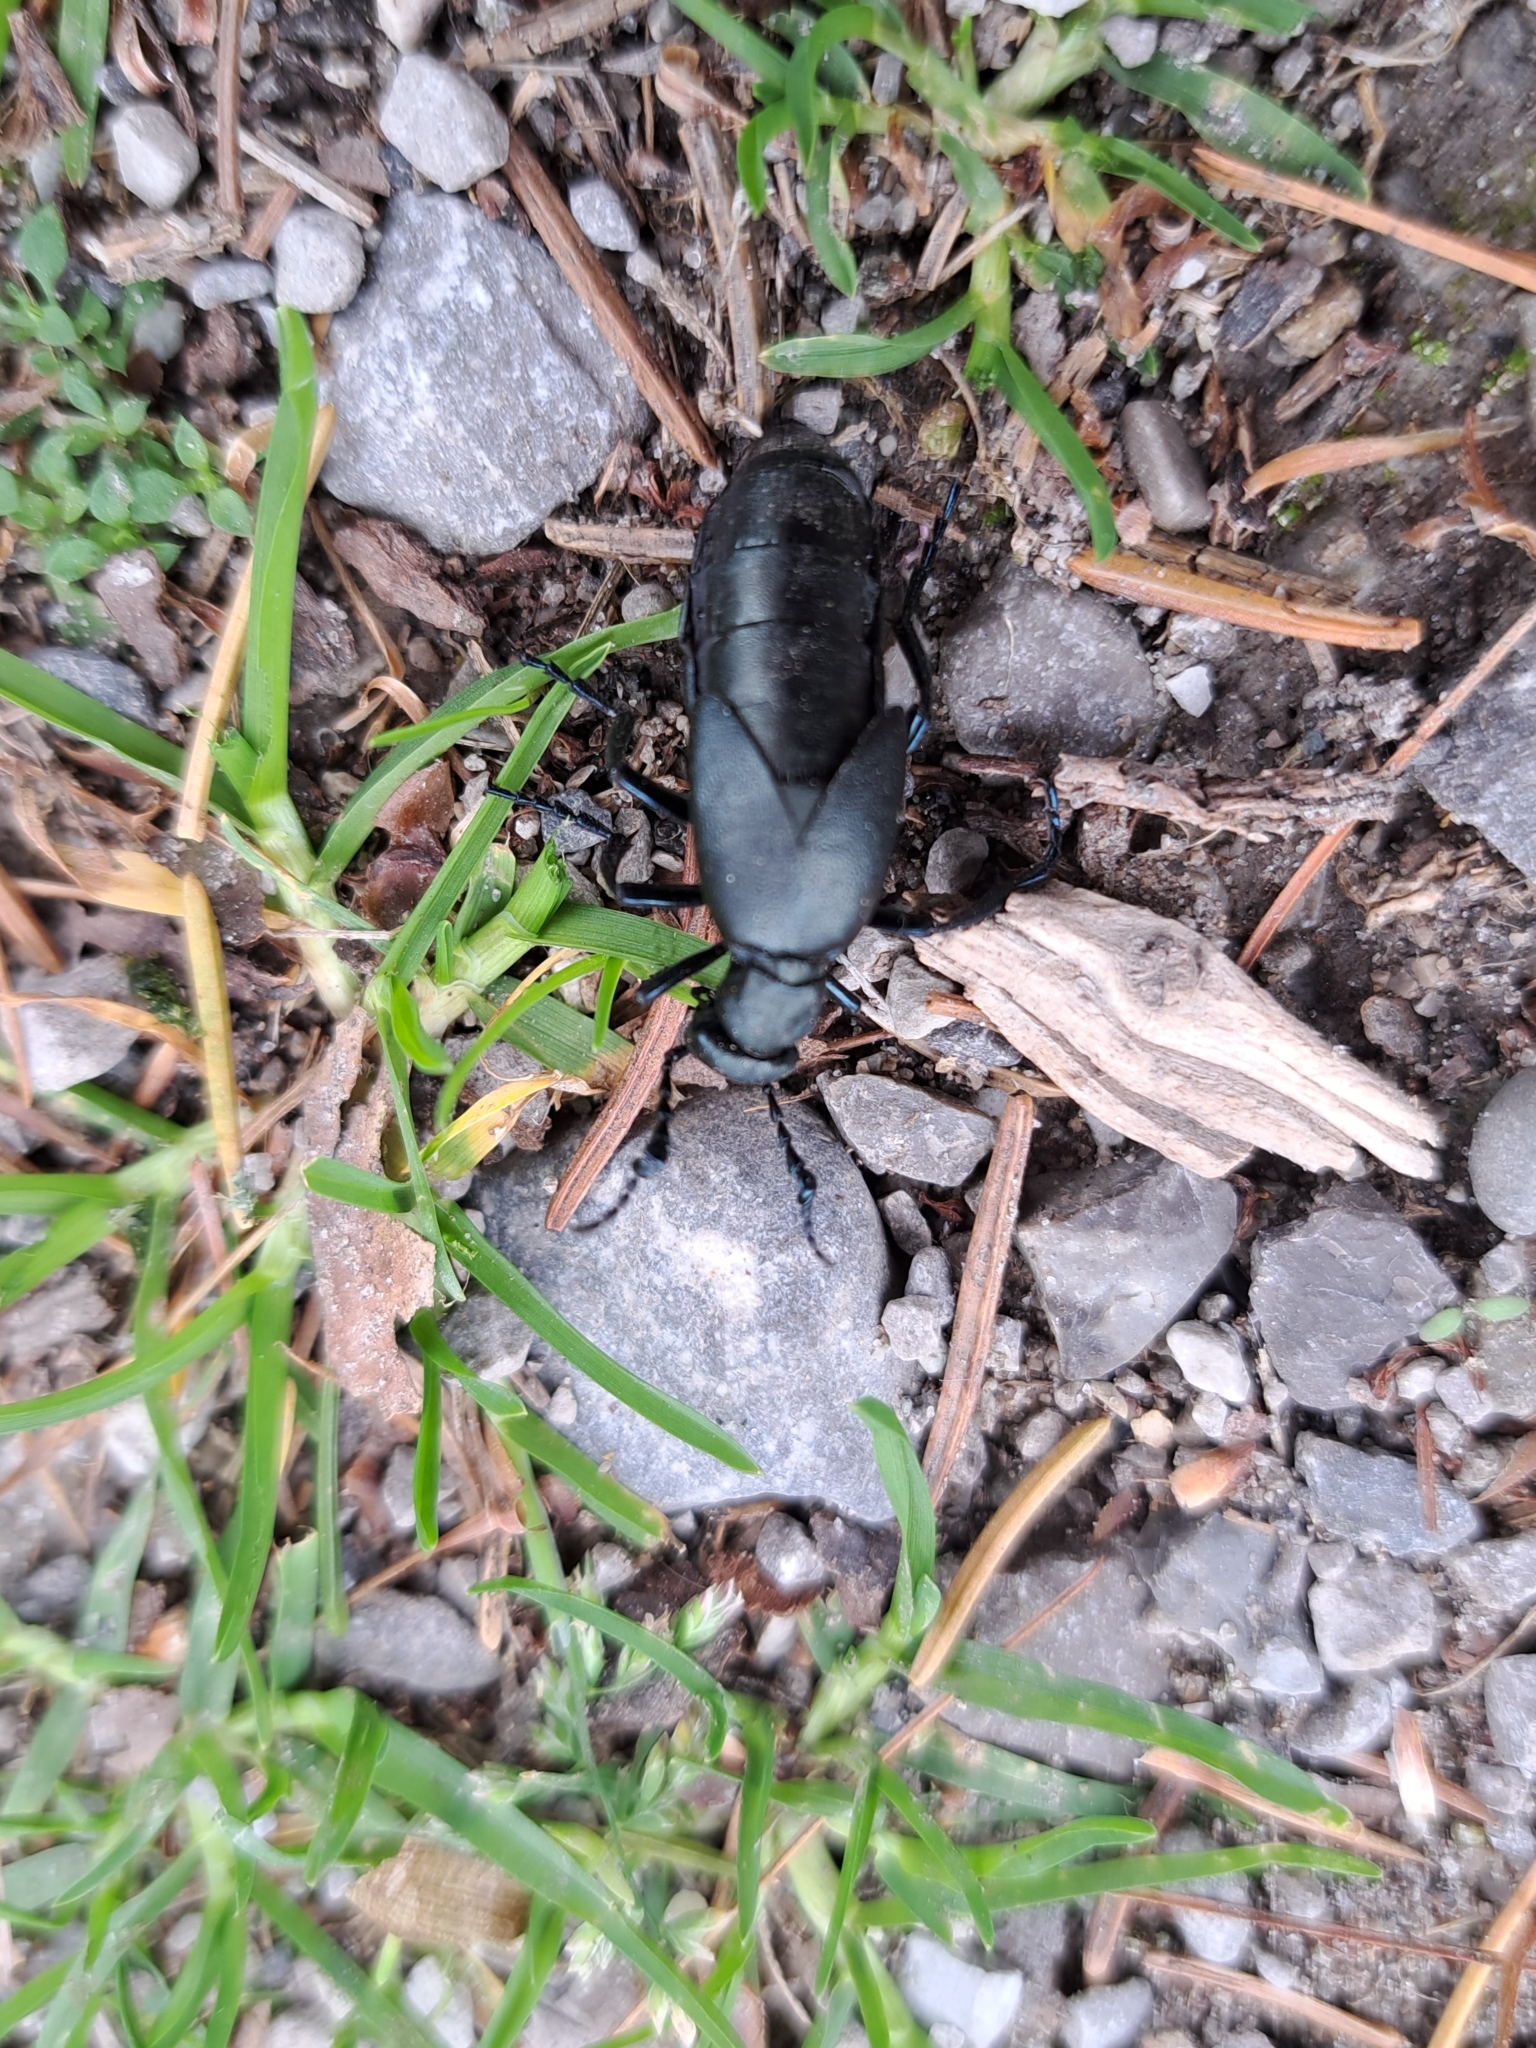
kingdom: Animalia
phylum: Arthropoda
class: Insecta
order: Coleoptera
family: Meloidae
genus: Meloe
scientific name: Meloe campanicollis
